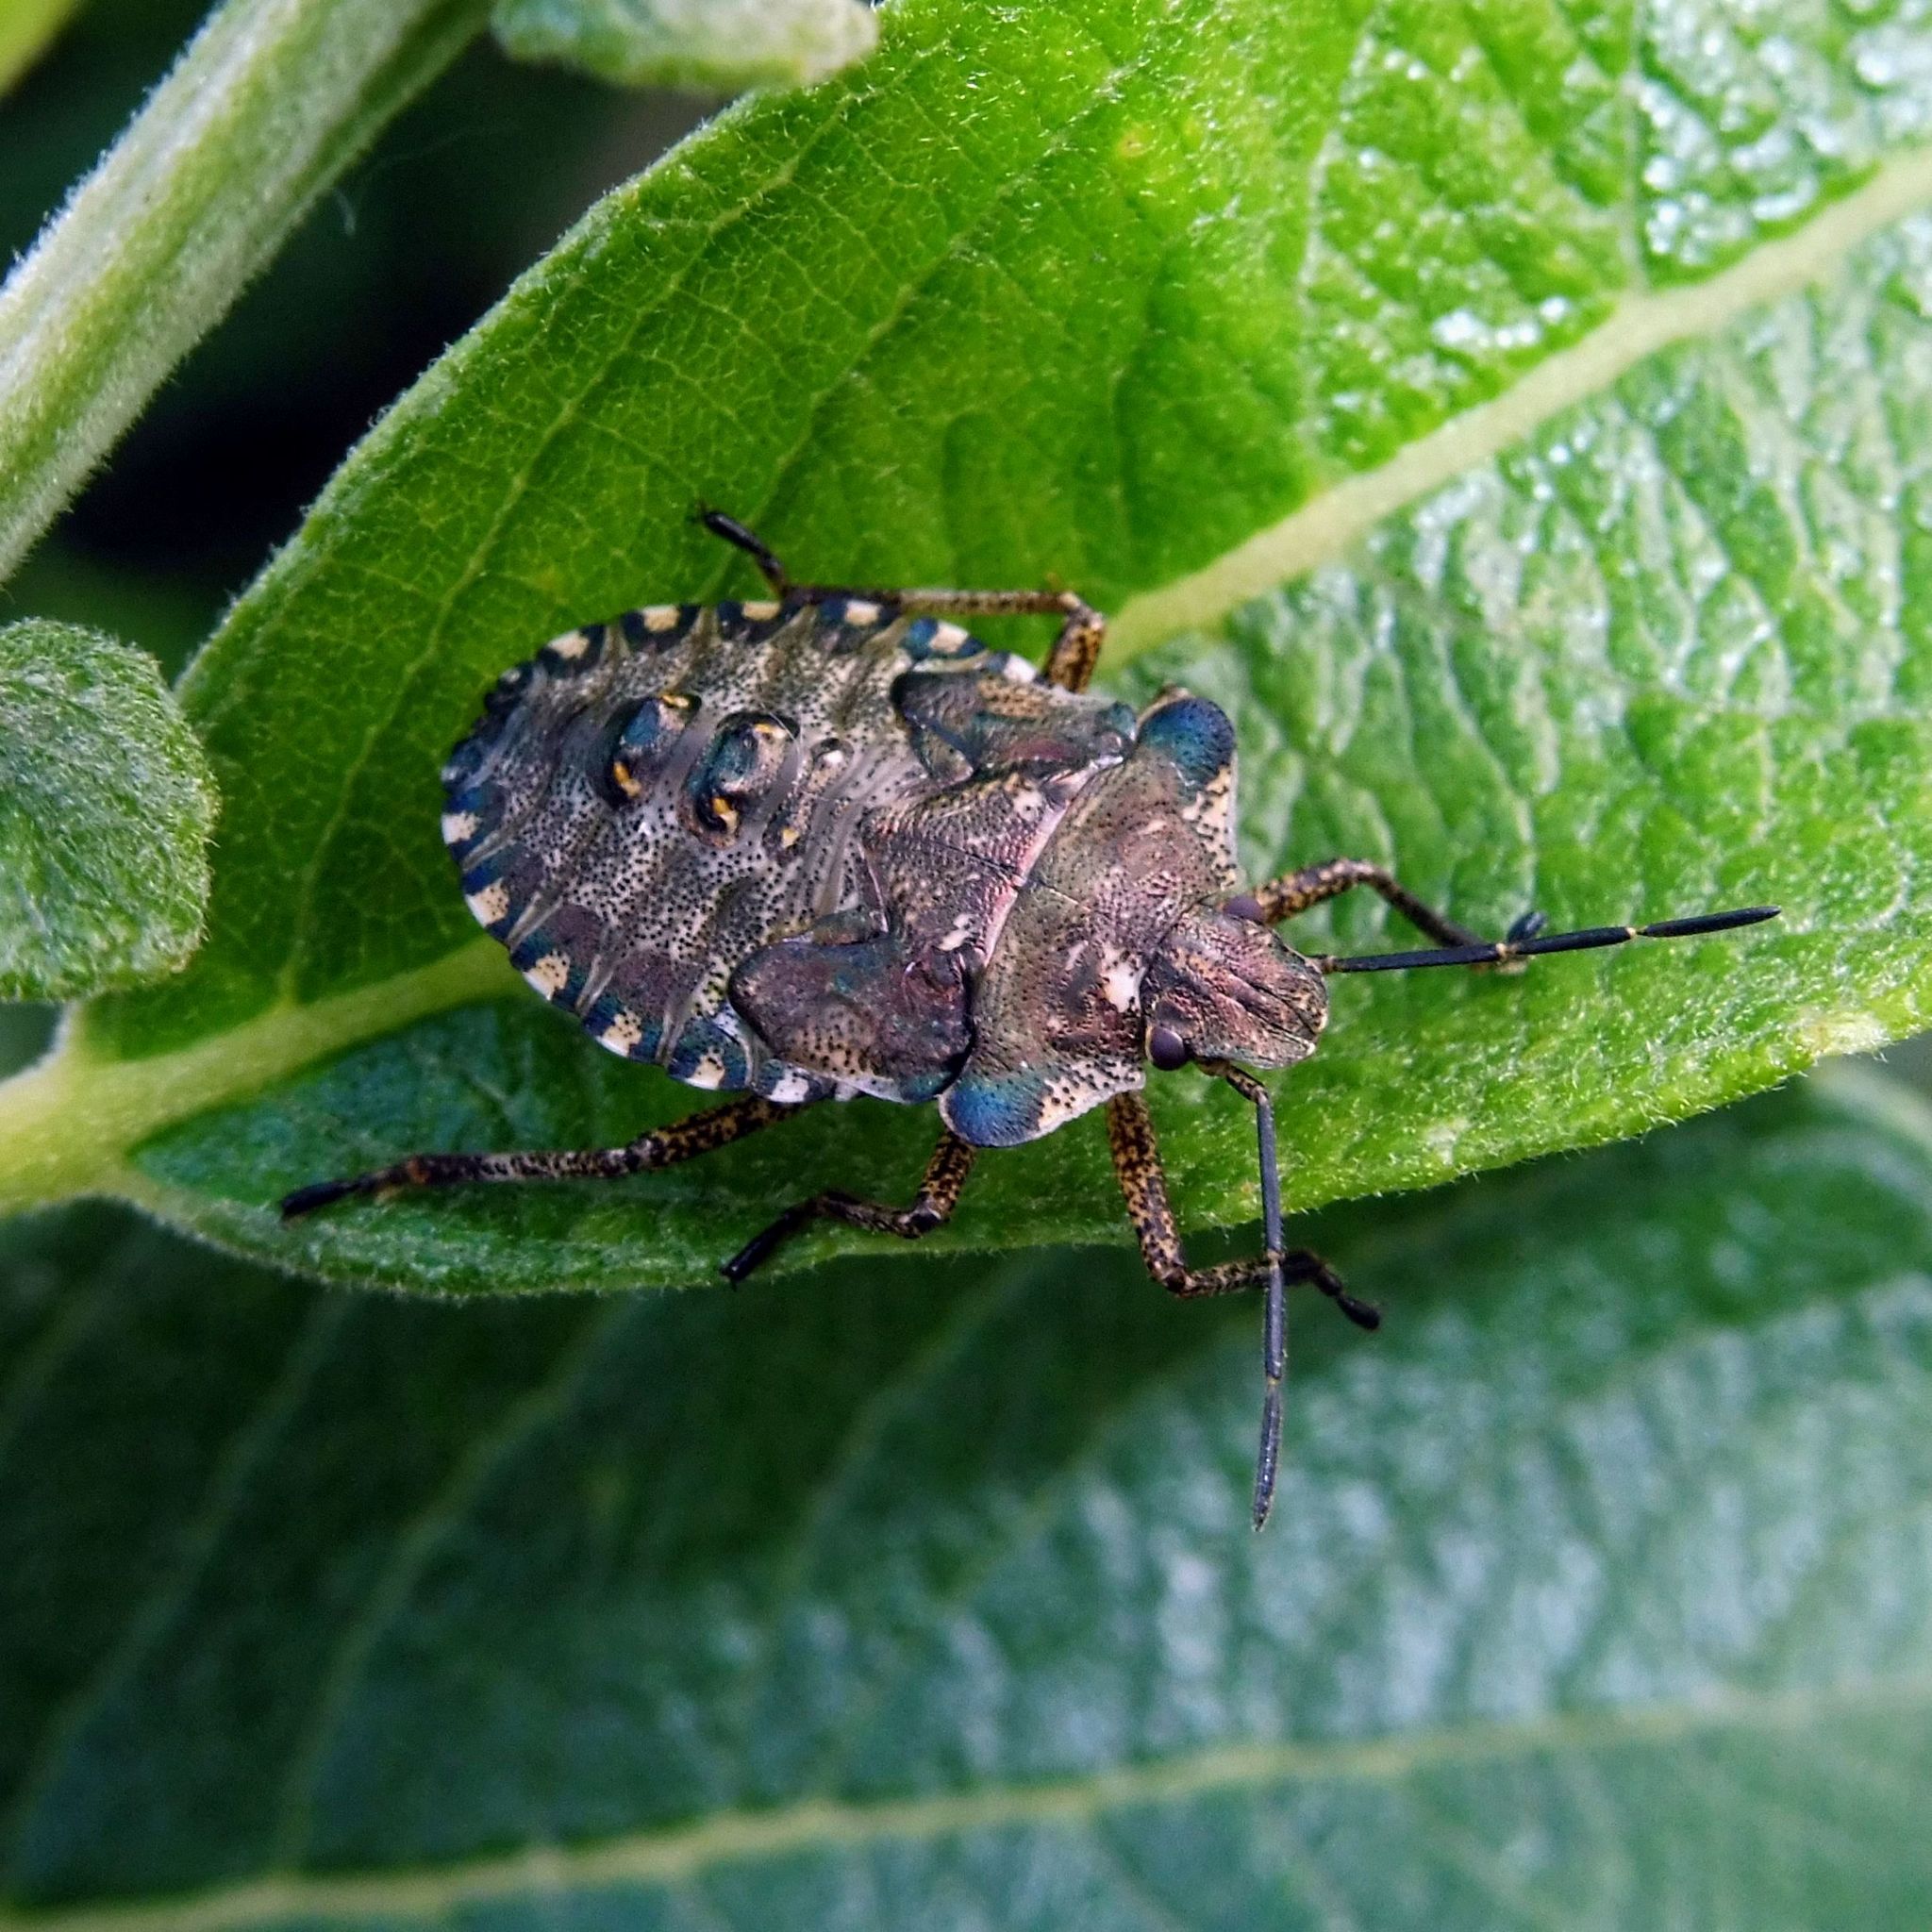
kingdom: Animalia
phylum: Arthropoda
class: Insecta
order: Hemiptera
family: Pentatomidae
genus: Pentatoma
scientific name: Pentatoma rufipes
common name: Forest bug
